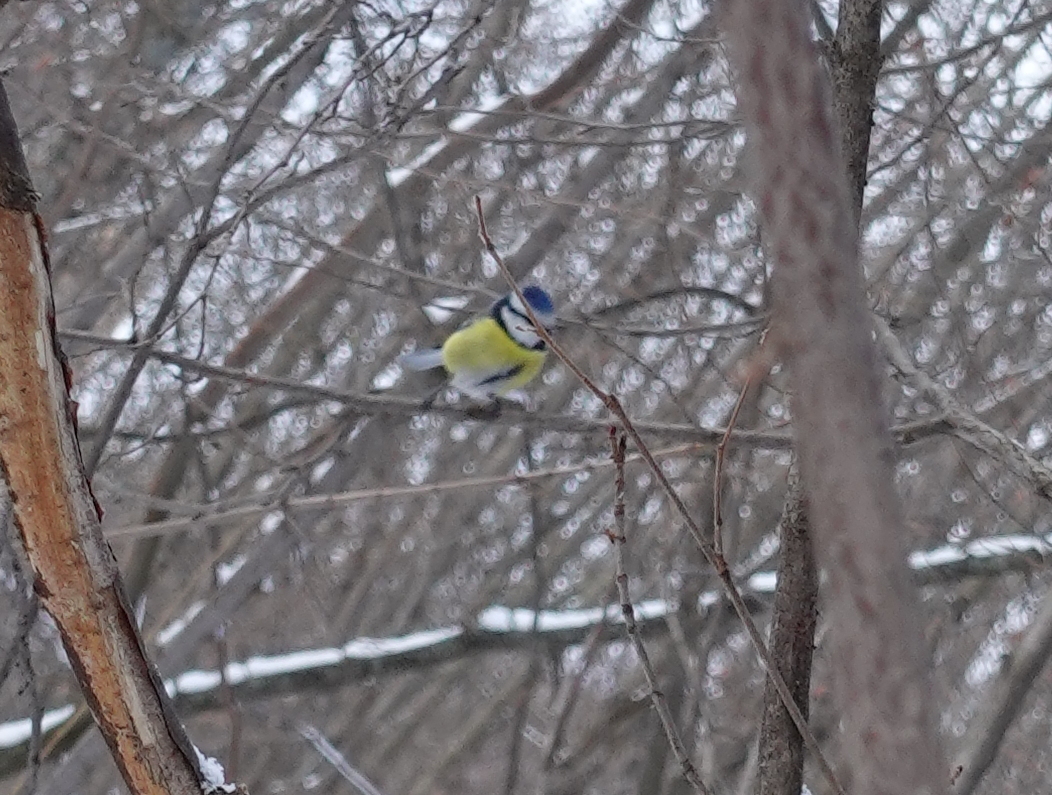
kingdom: Animalia
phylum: Chordata
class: Aves
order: Passeriformes
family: Paridae
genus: Cyanistes
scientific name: Cyanistes caeruleus
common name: Eurasian blue tit
